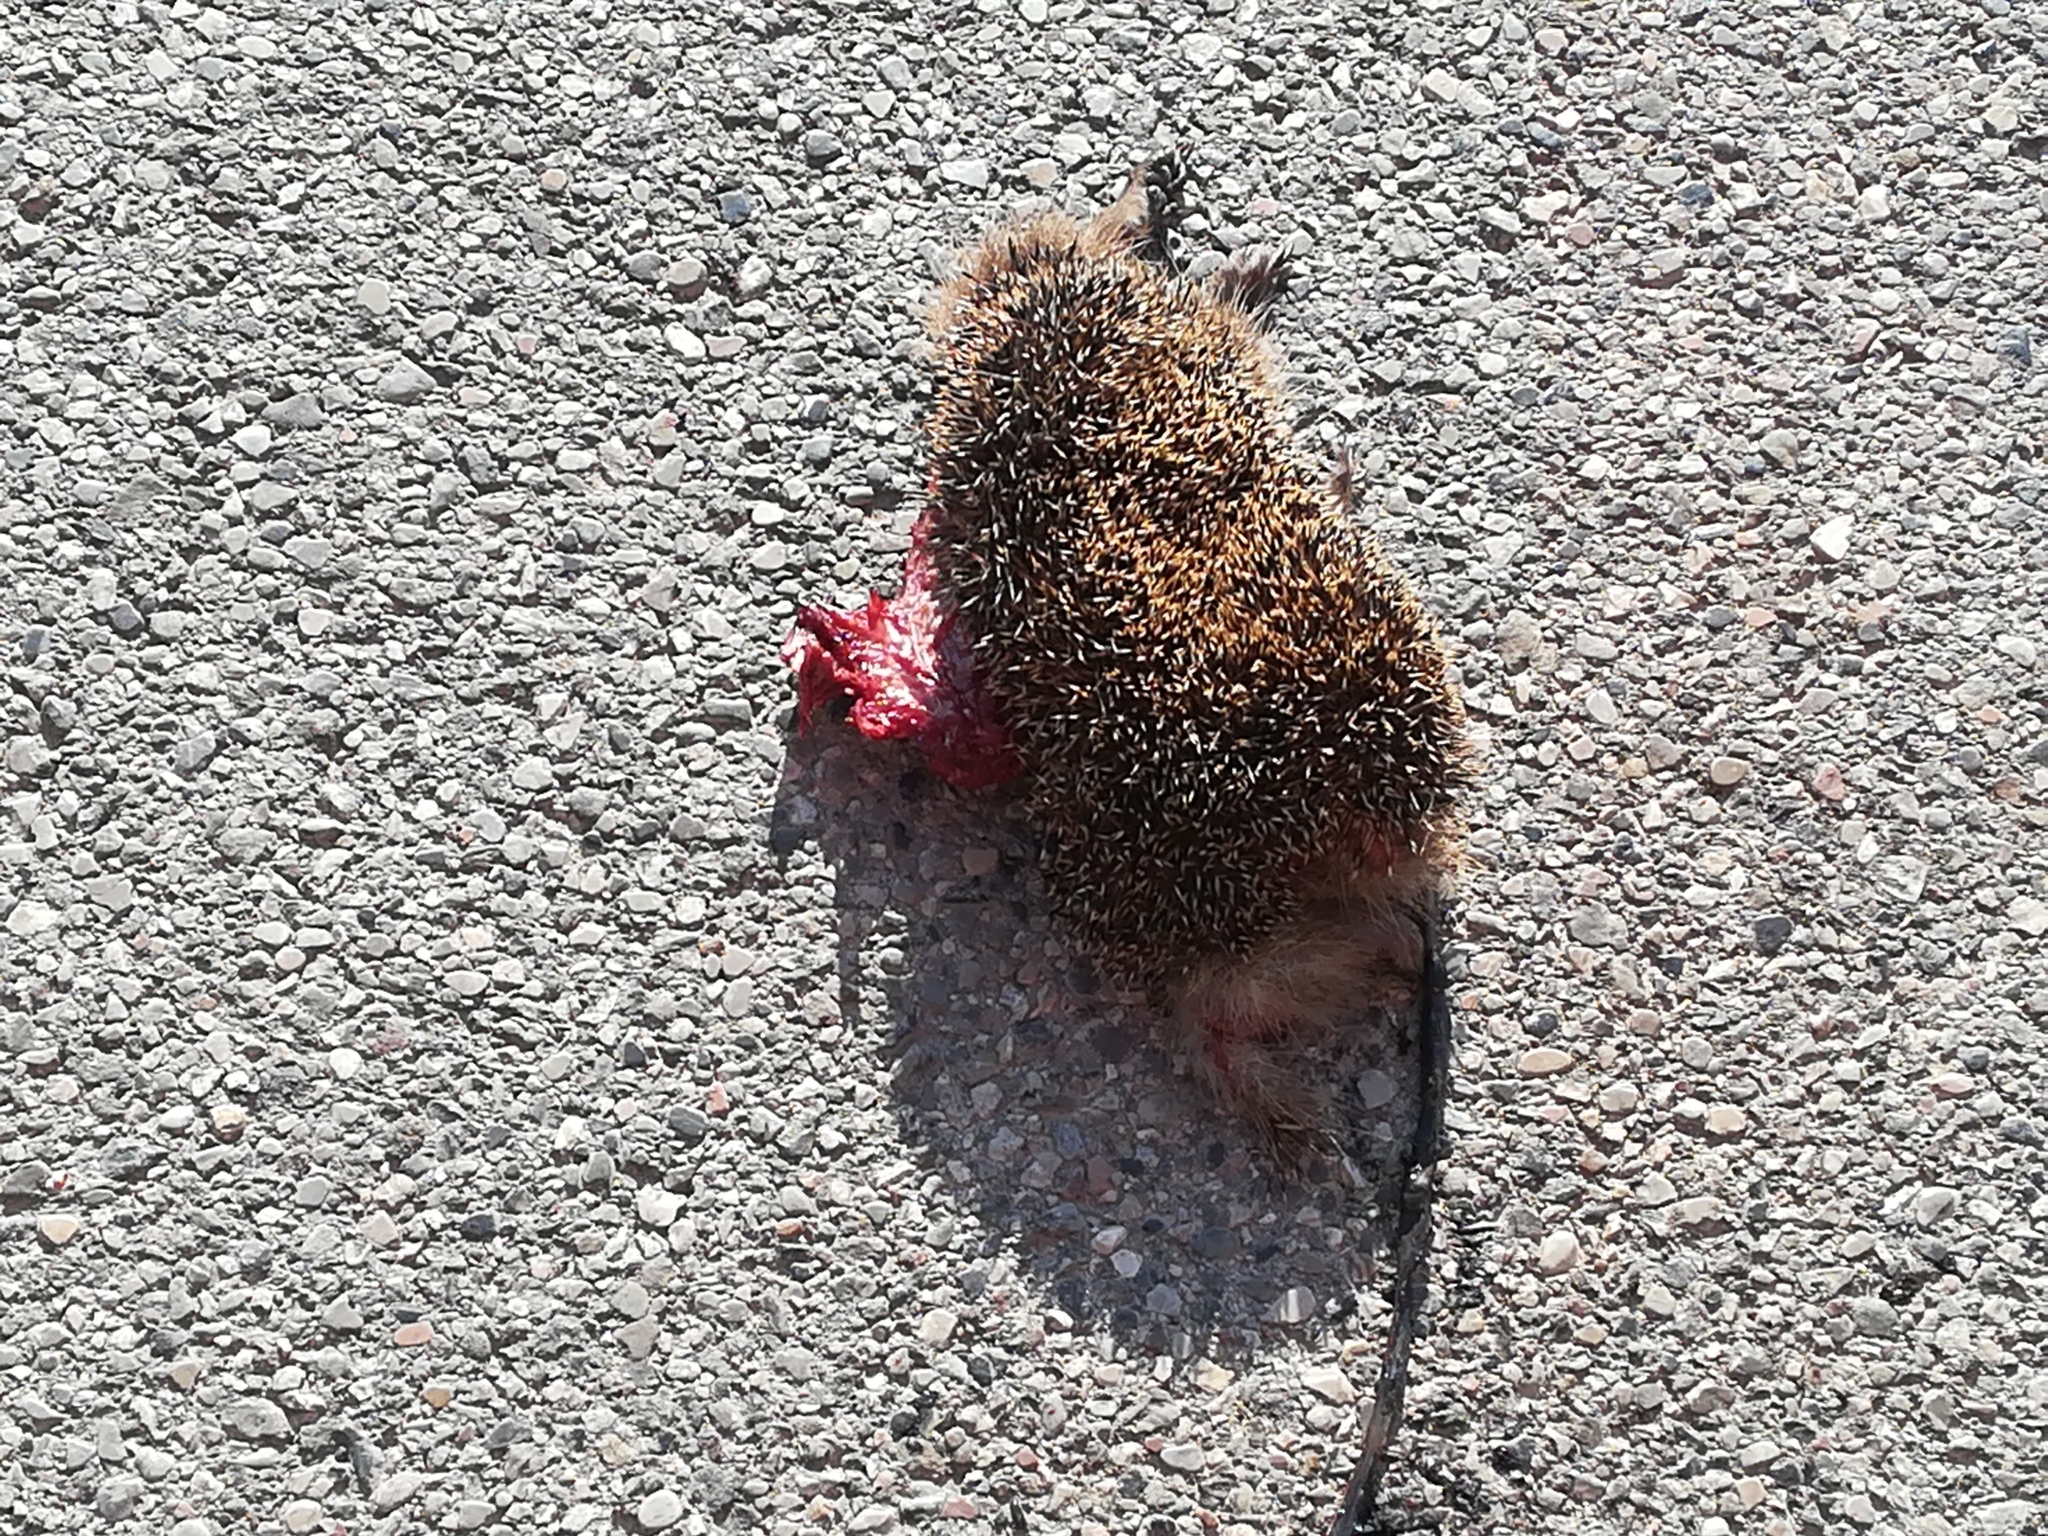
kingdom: Animalia
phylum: Chordata
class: Mammalia
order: Erinaceomorpha
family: Erinaceidae
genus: Erinaceus
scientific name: Erinaceus europaeus
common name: West european hedgehog
